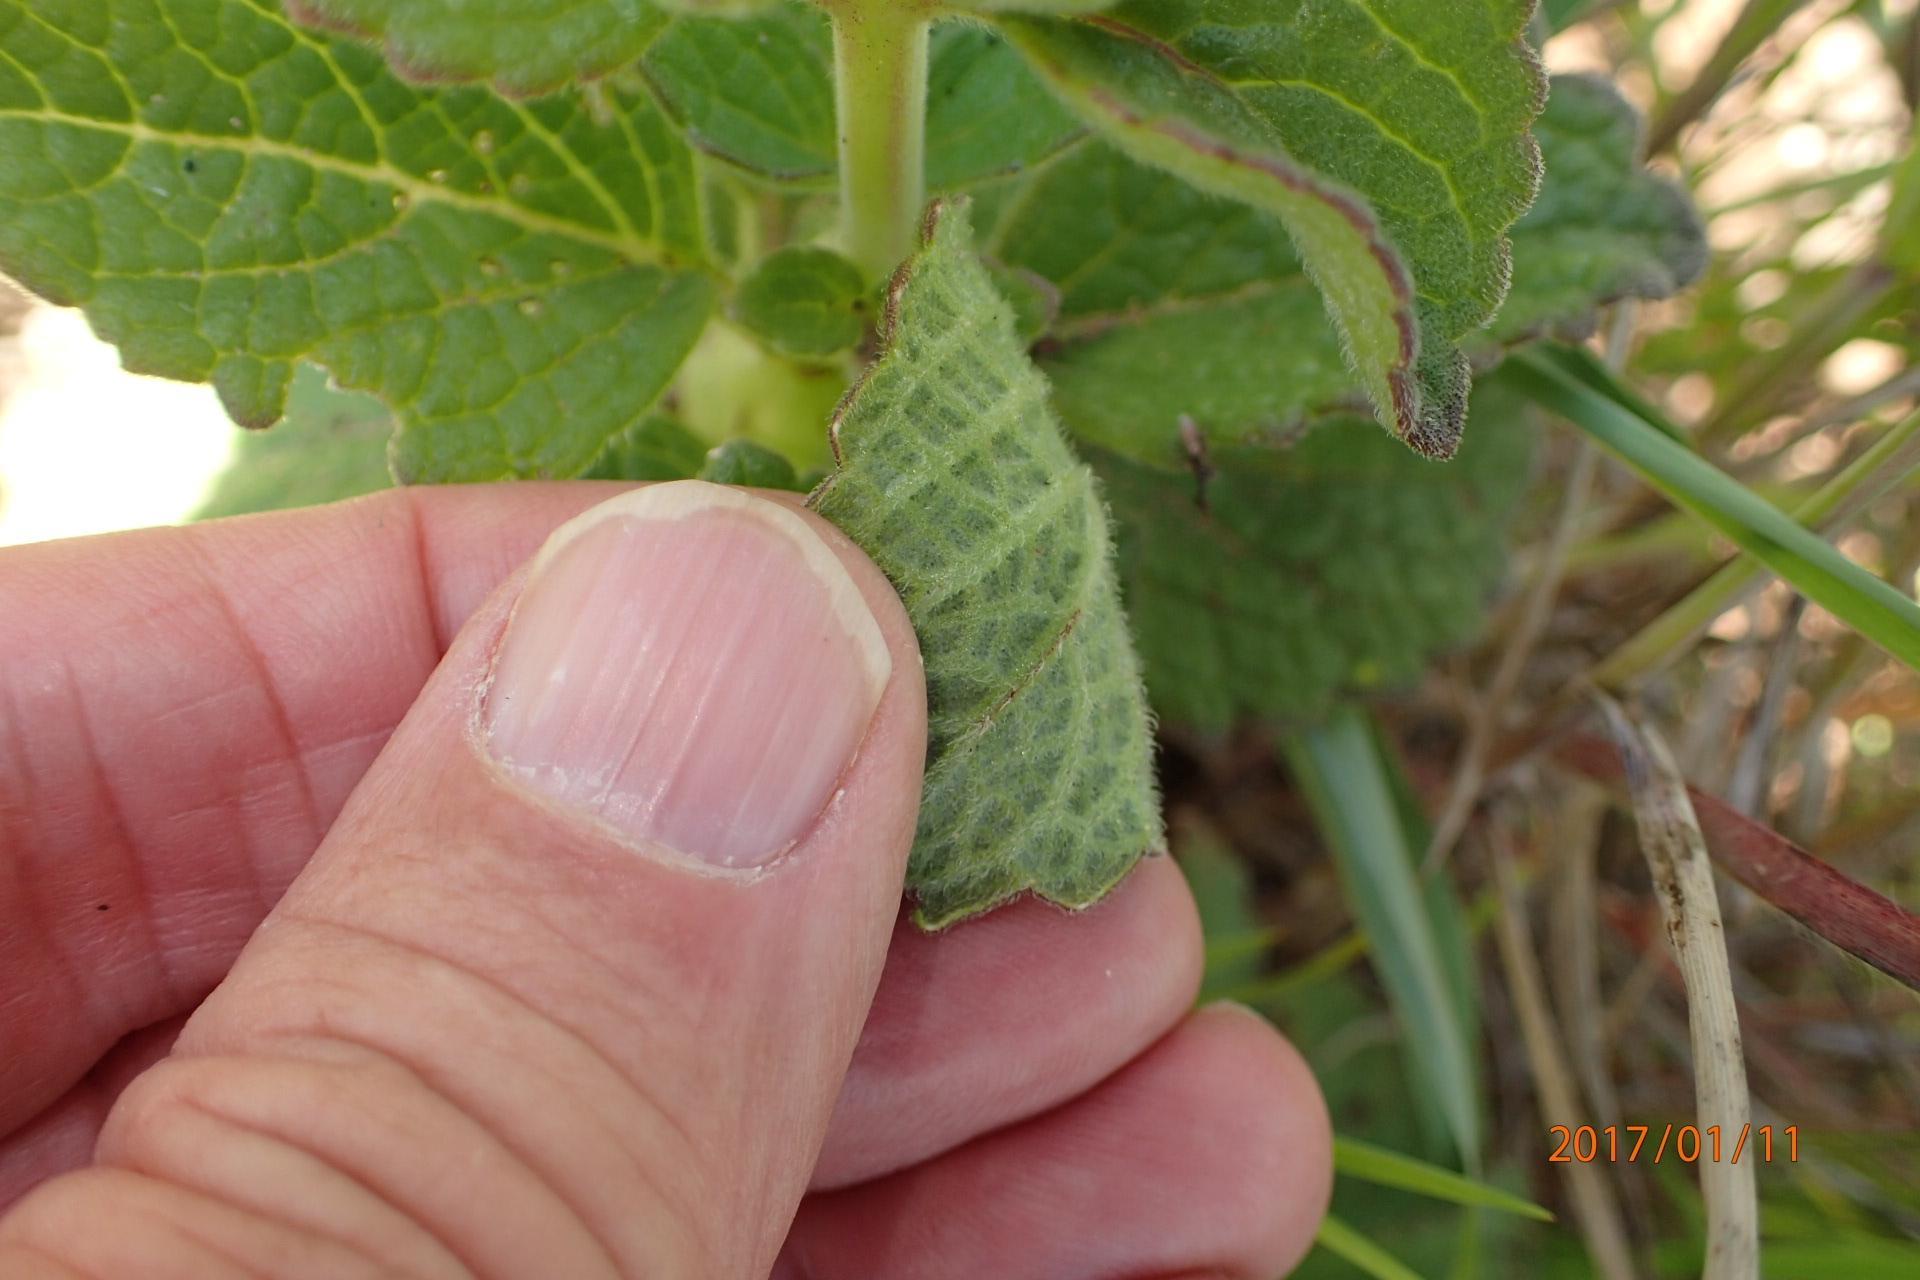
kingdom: Plantae
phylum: Tracheophyta
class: Magnoliopsida
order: Lamiales
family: Lamiaceae
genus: Coleus
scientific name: Coleus hadiensis
